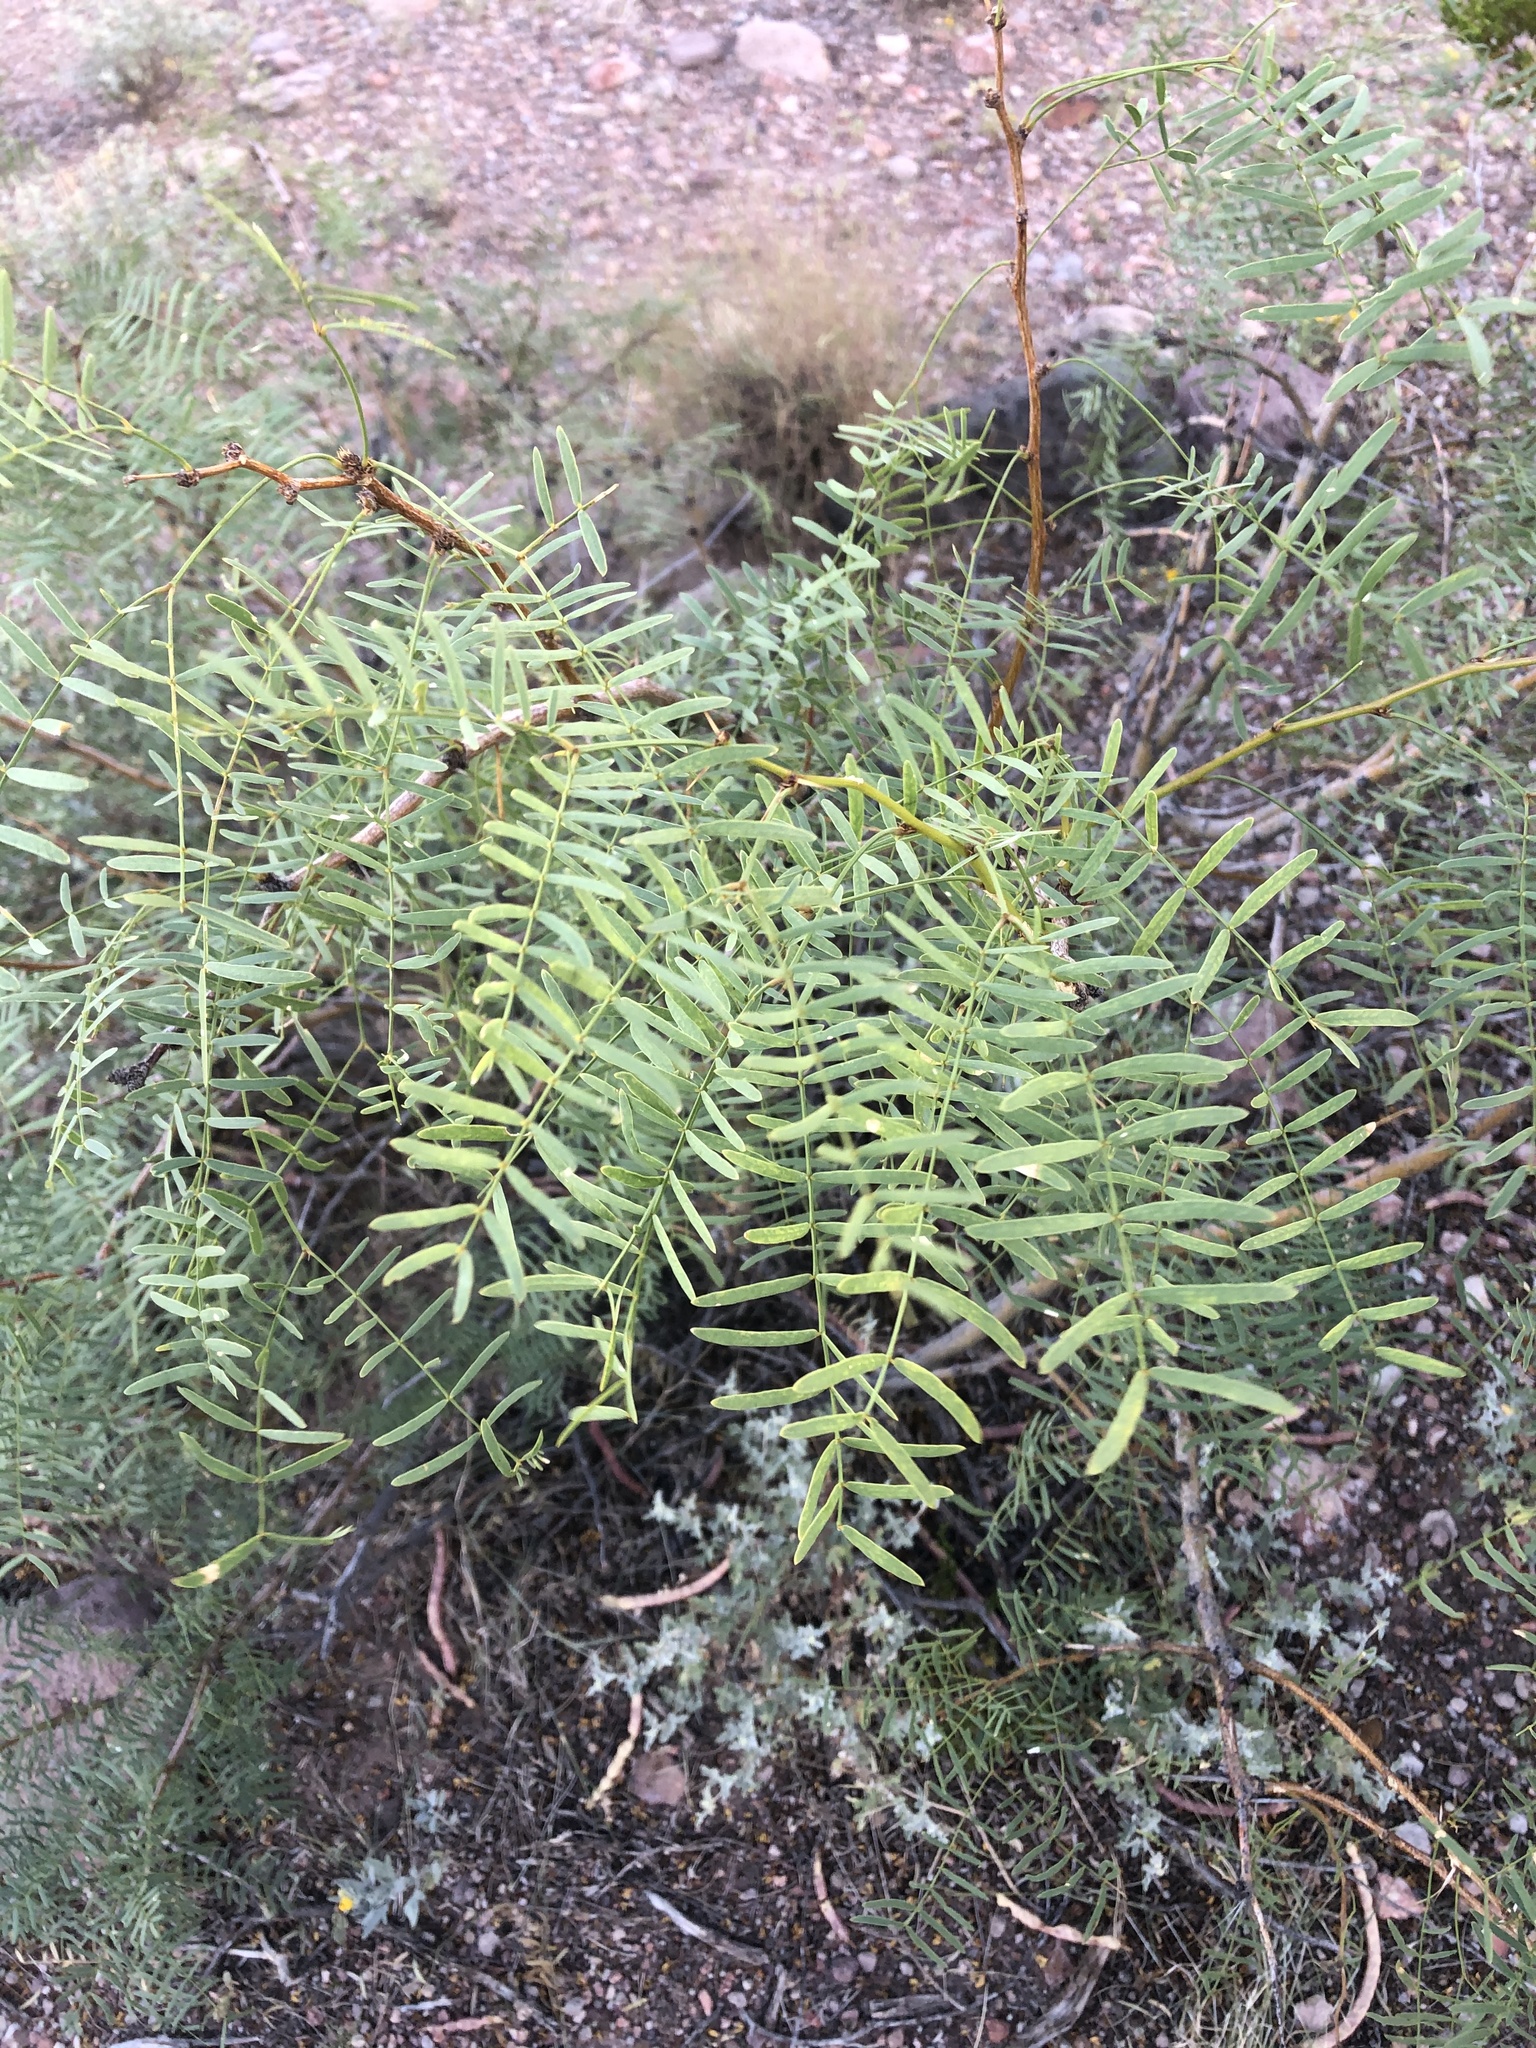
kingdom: Plantae
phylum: Tracheophyta
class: Magnoliopsida
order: Fabales
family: Fabaceae
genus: Prosopis
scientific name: Prosopis glandulosa
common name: Honey mesquite
